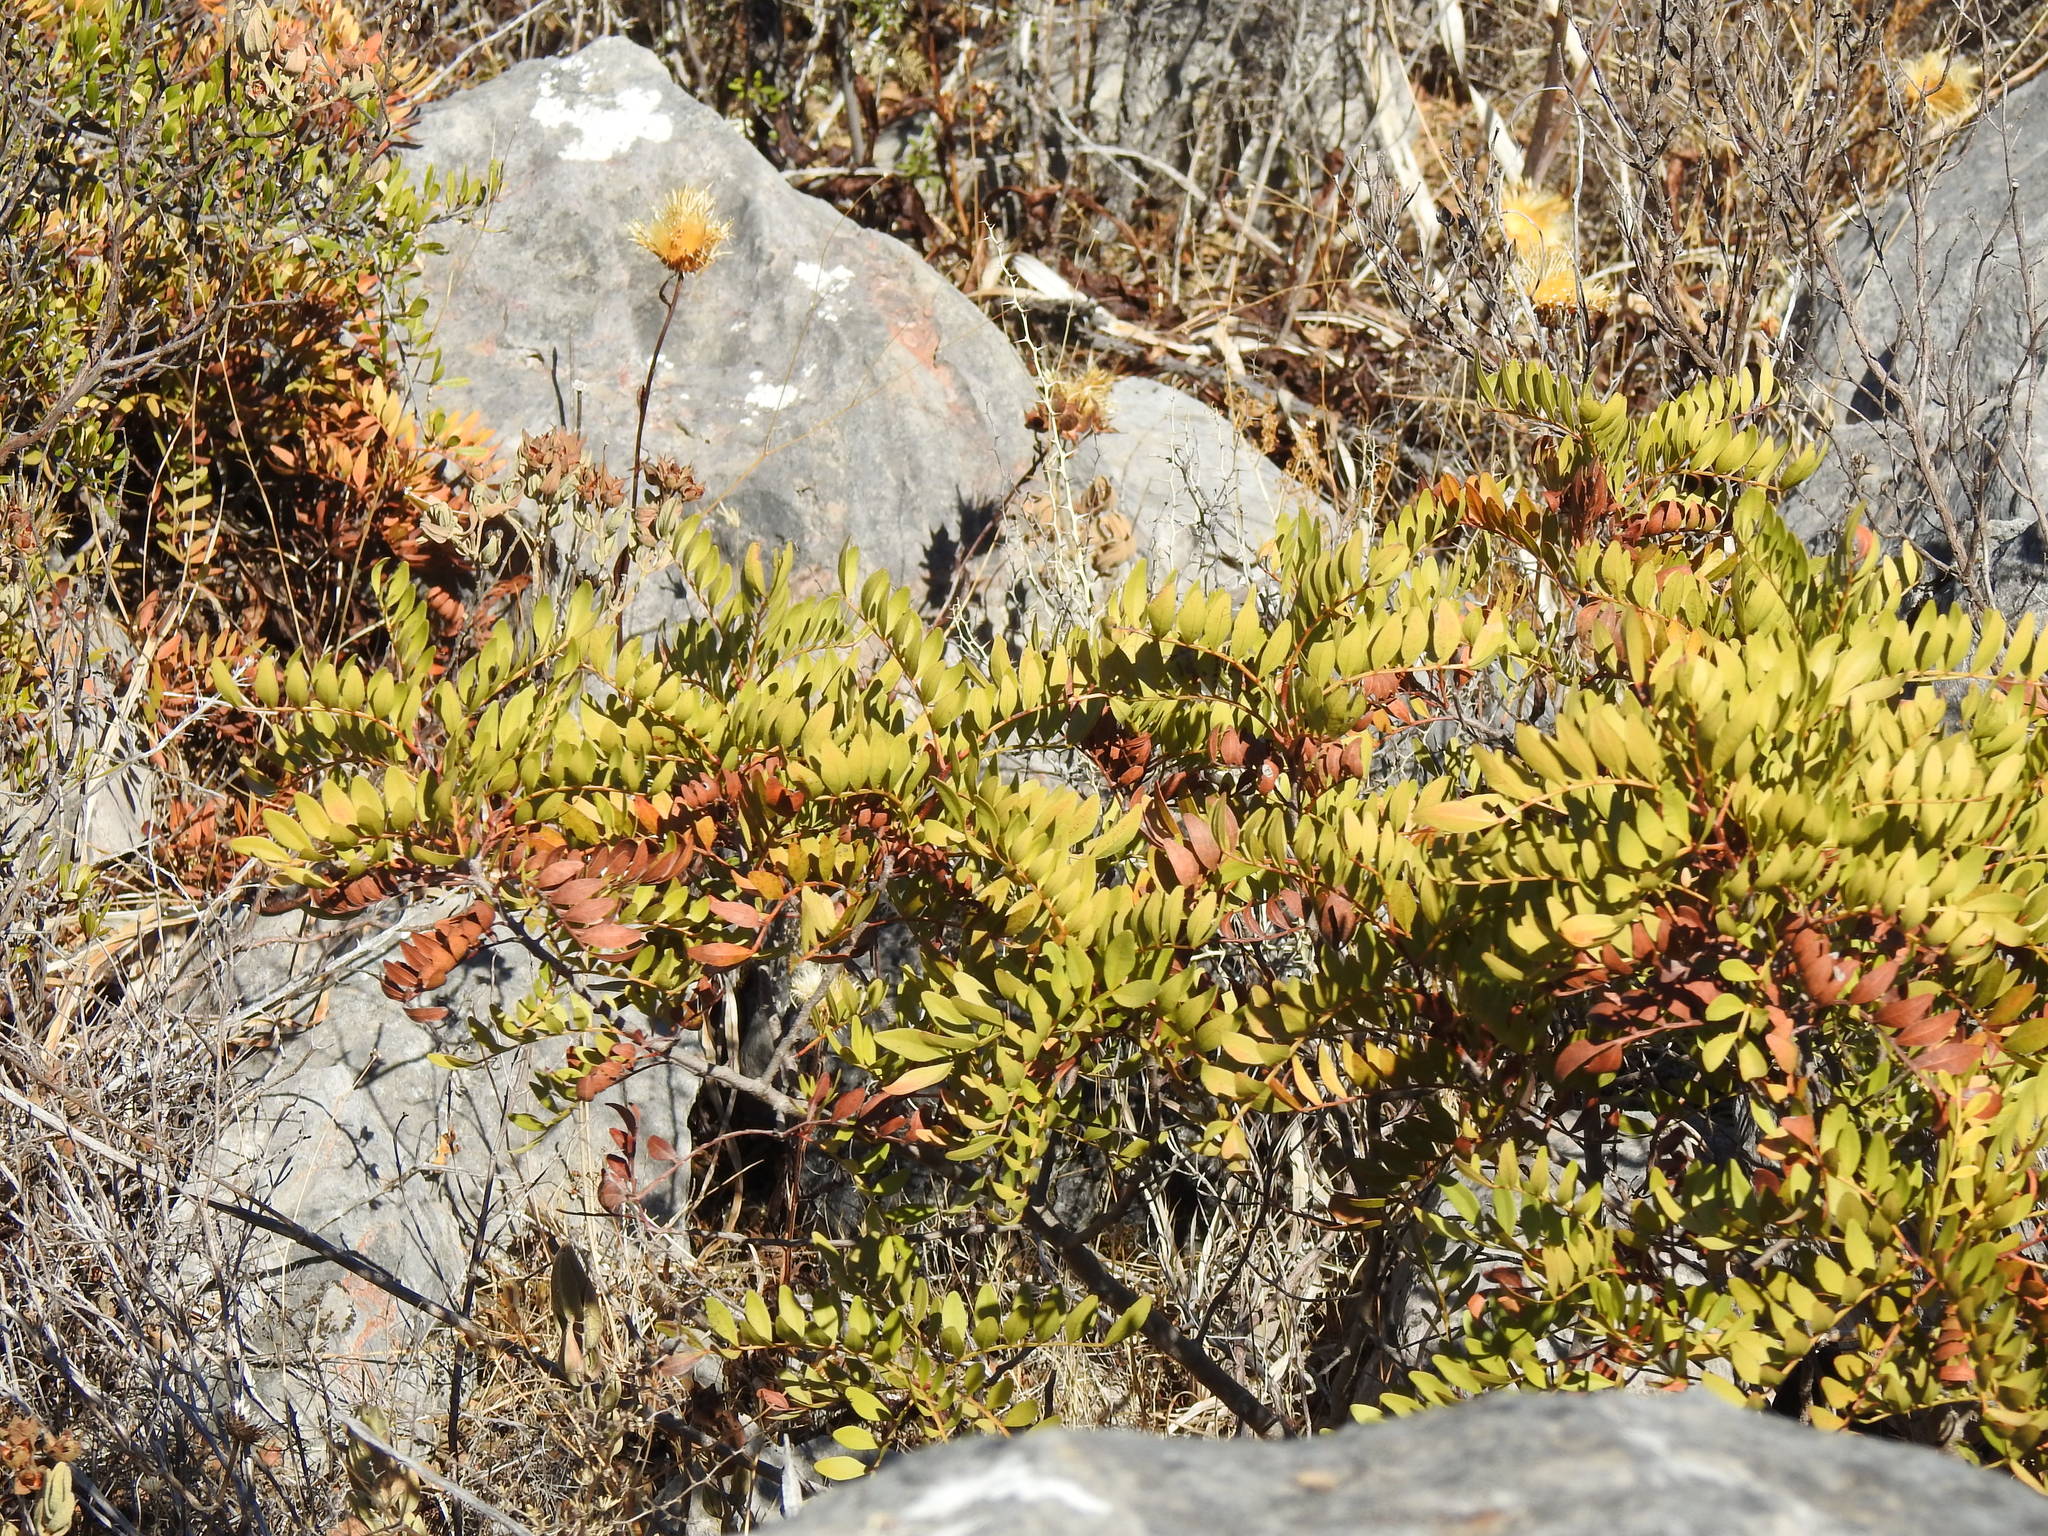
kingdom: Plantae
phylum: Tracheophyta
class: Magnoliopsida
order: Sapindales
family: Anacardiaceae
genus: Pistacia
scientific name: Pistacia lentiscus
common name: Lentisk
